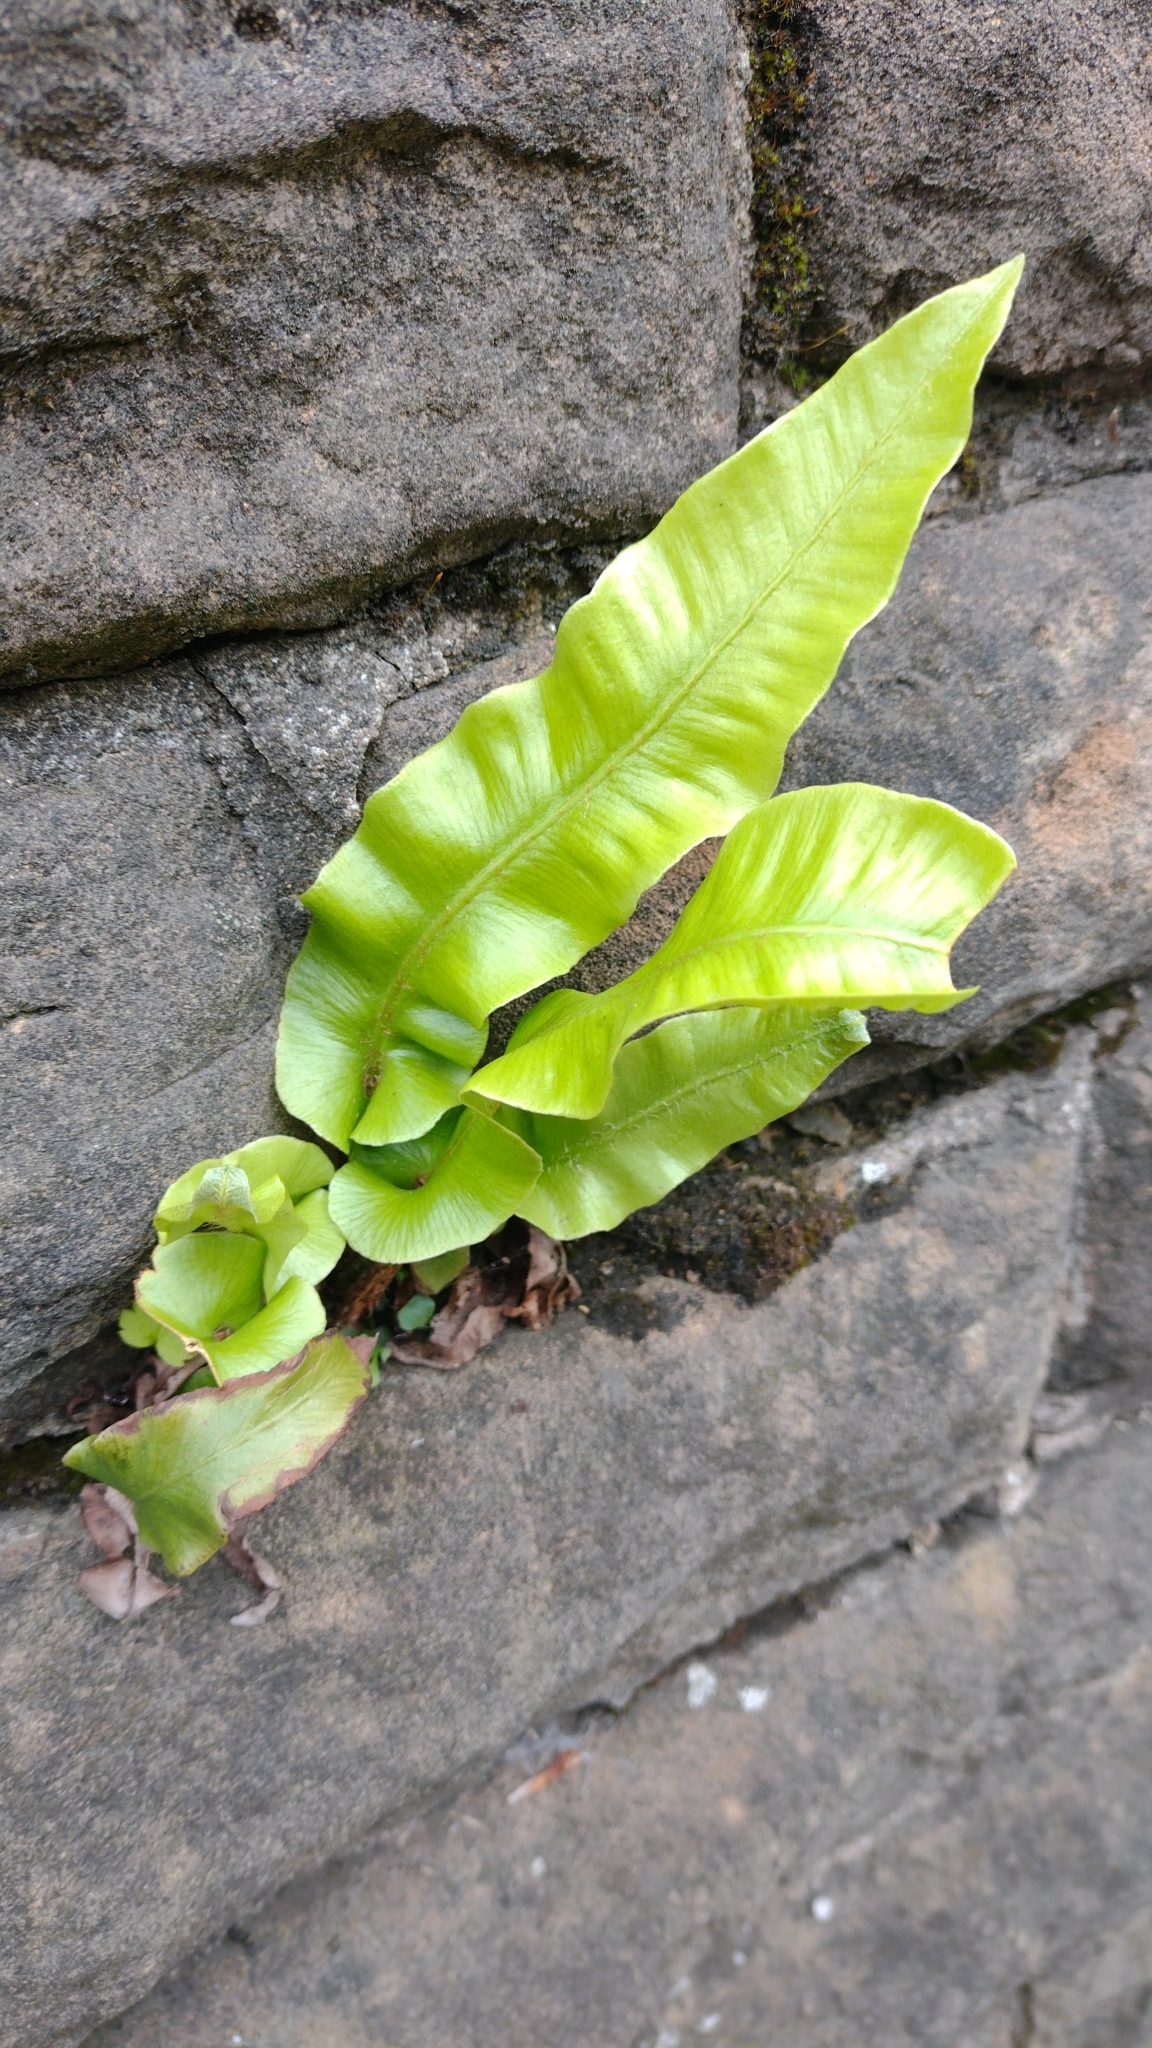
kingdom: Plantae
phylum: Tracheophyta
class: Polypodiopsida
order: Polypodiales
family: Aspleniaceae
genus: Asplenium
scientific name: Asplenium scolopendrium
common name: Hart's-tongue fern
